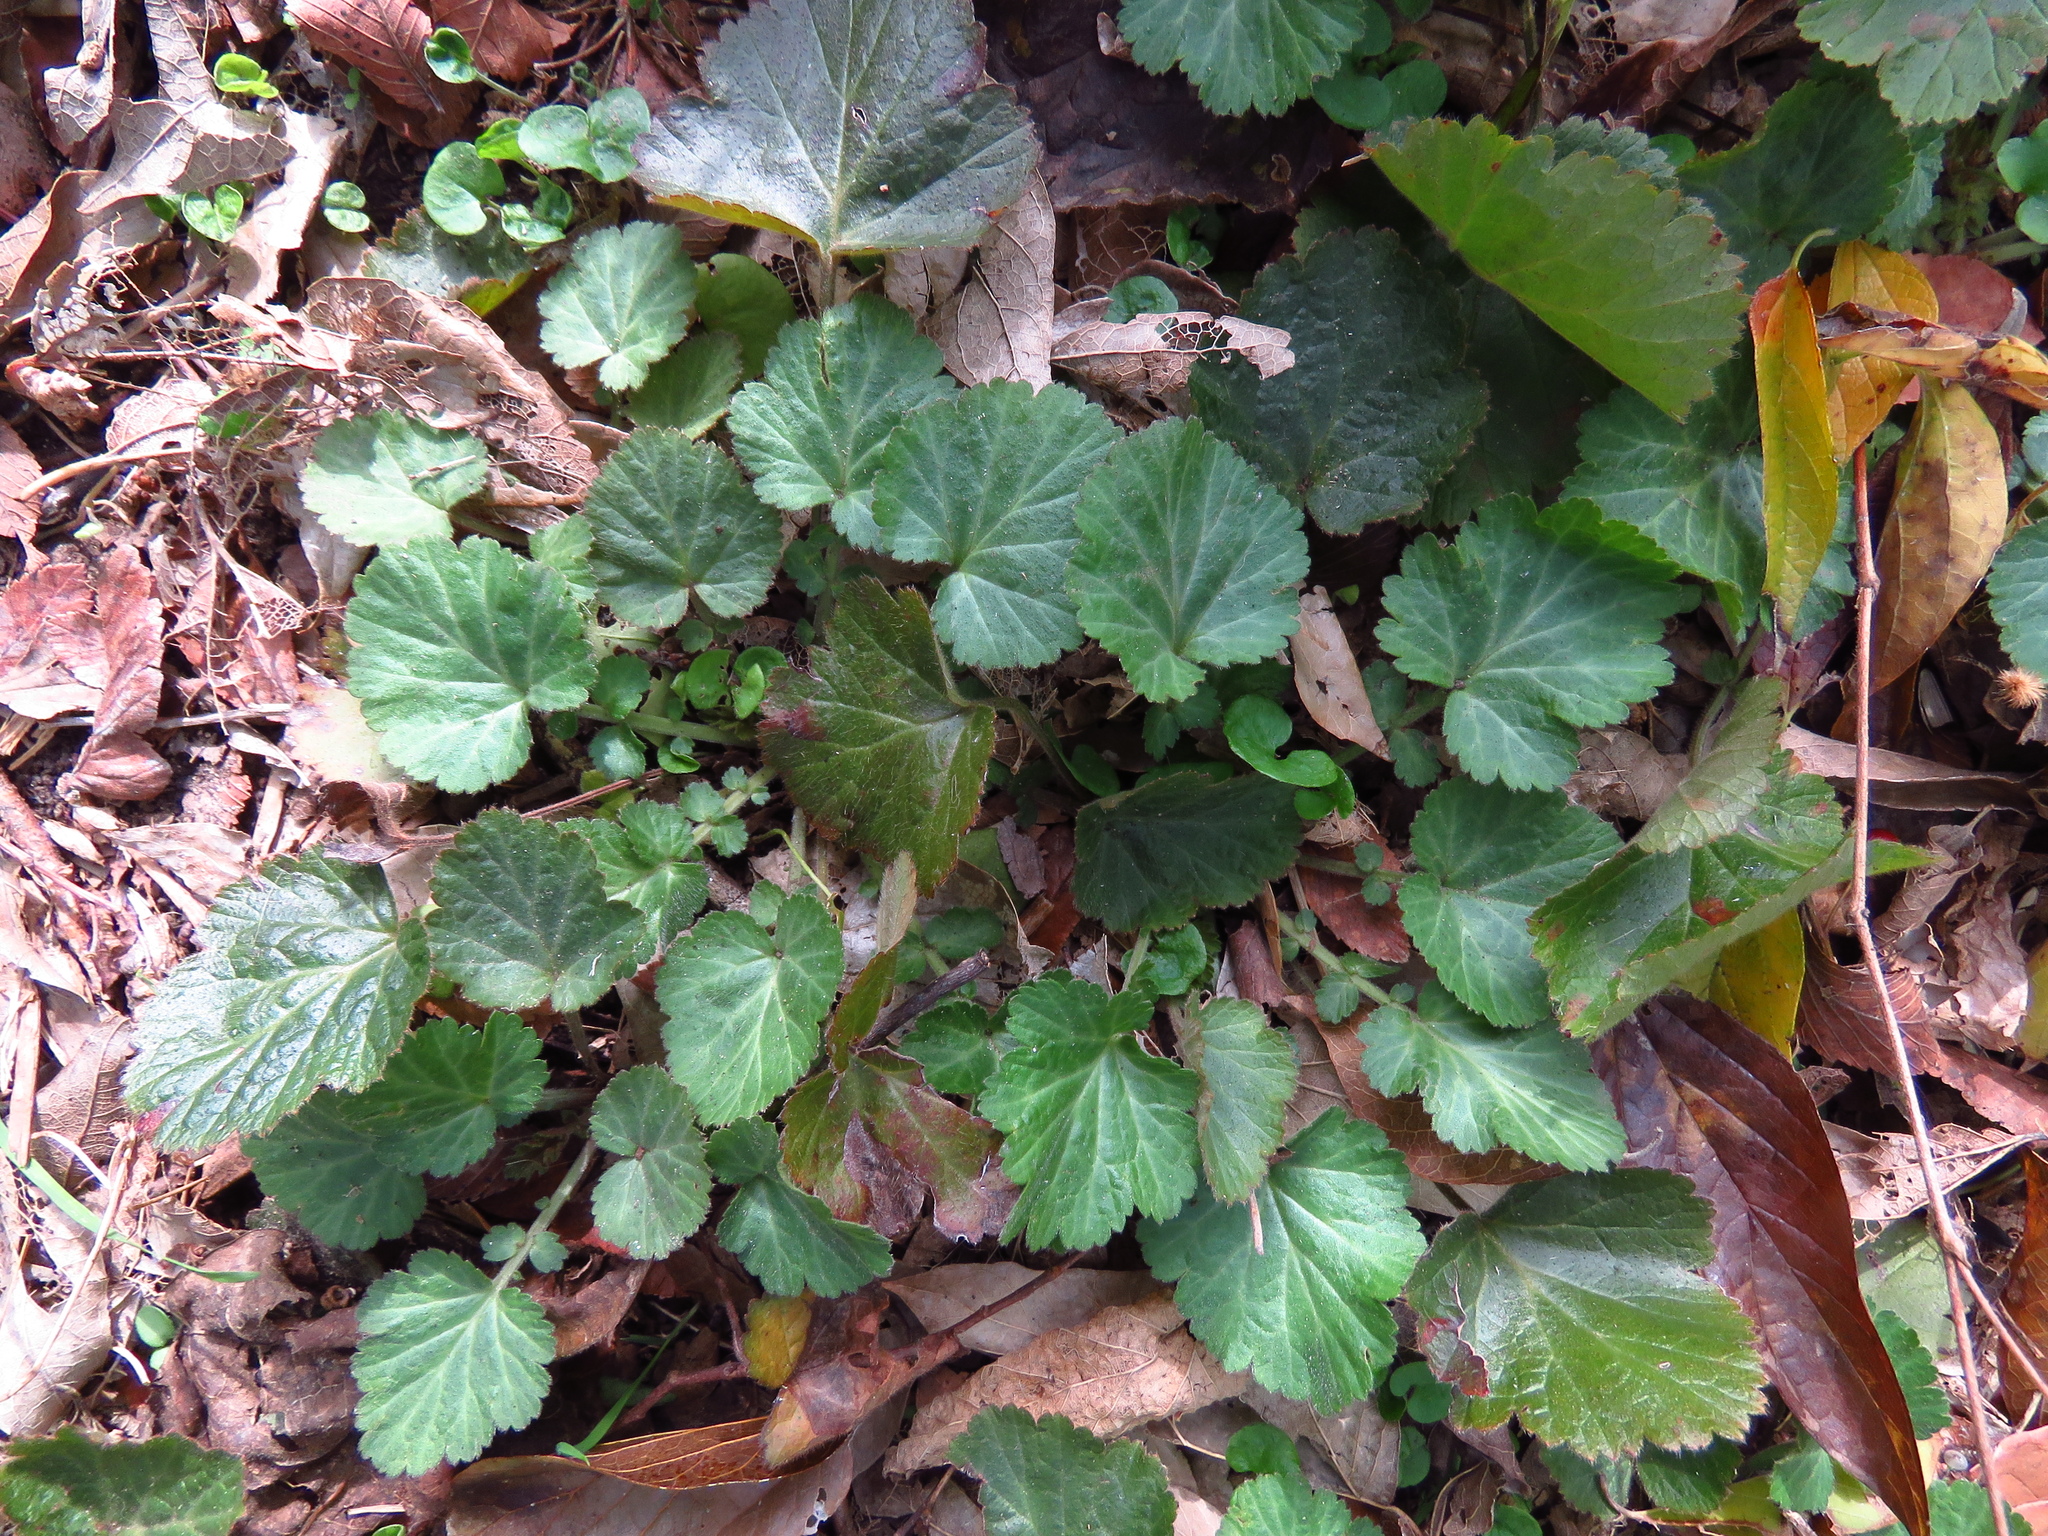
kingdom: Plantae
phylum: Tracheophyta
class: Magnoliopsida
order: Rosales
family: Rosaceae
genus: Geum
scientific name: Geum canadense
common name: White avens
